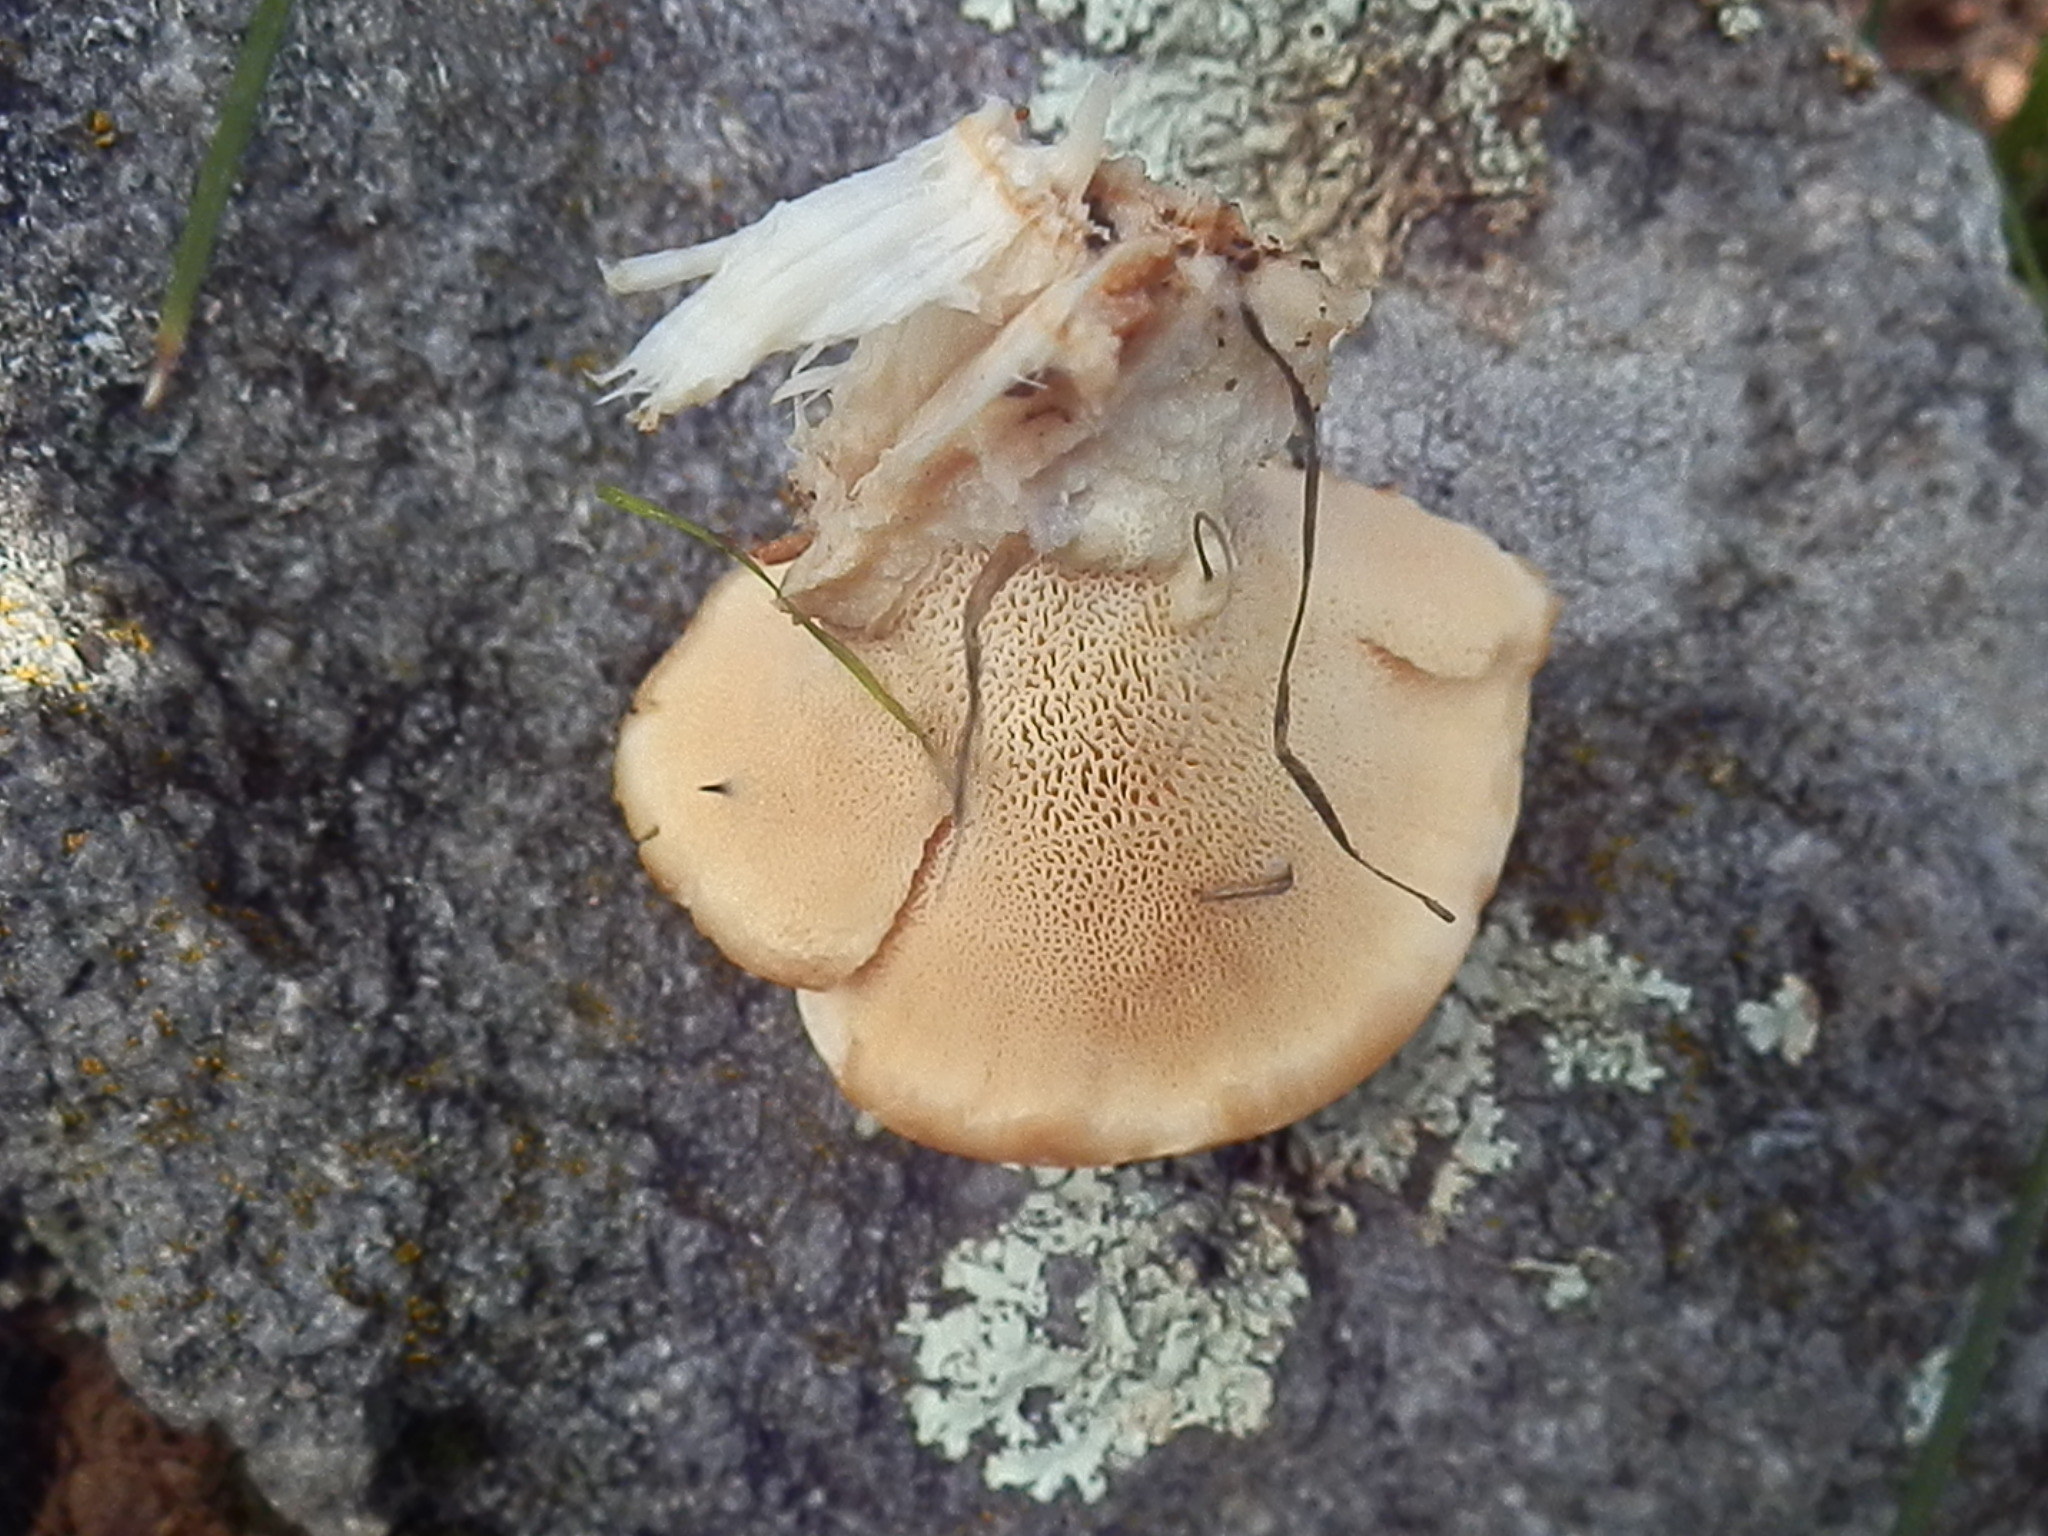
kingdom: Fungi
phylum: Basidiomycota
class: Agaricomycetes
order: Polyporales
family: Fomitopsidaceae
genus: Climacocystis
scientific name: Climacocystis borealis
